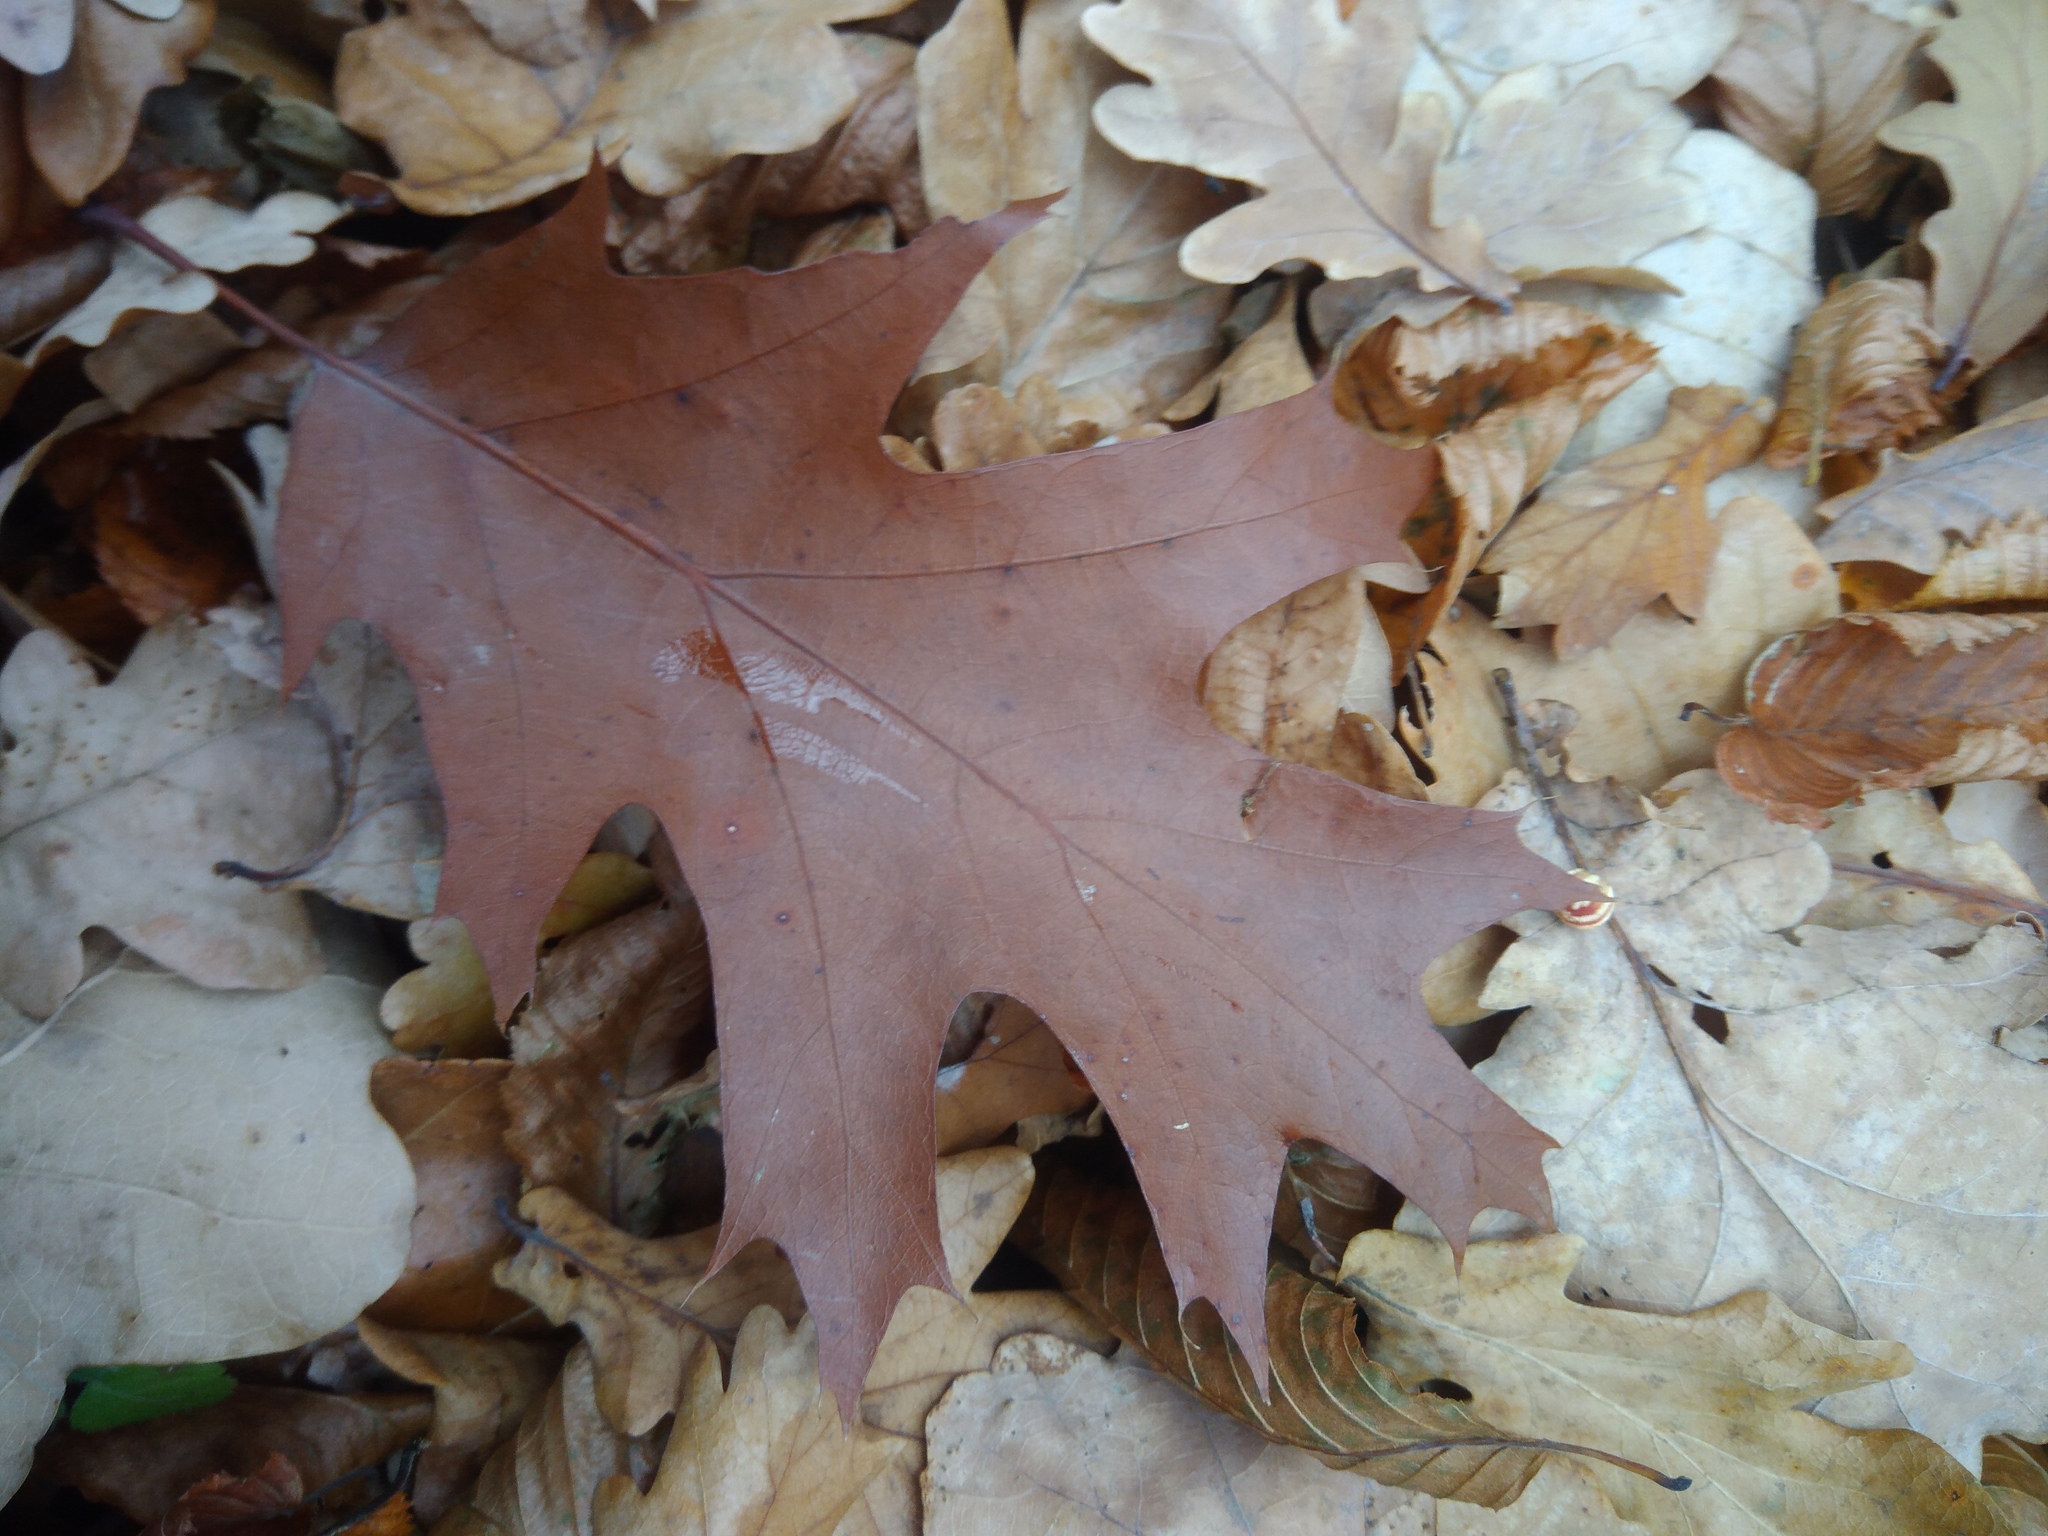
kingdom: Plantae
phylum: Tracheophyta
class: Magnoliopsida
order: Fagales
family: Fagaceae
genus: Quercus
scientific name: Quercus rubra
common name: Red oak
